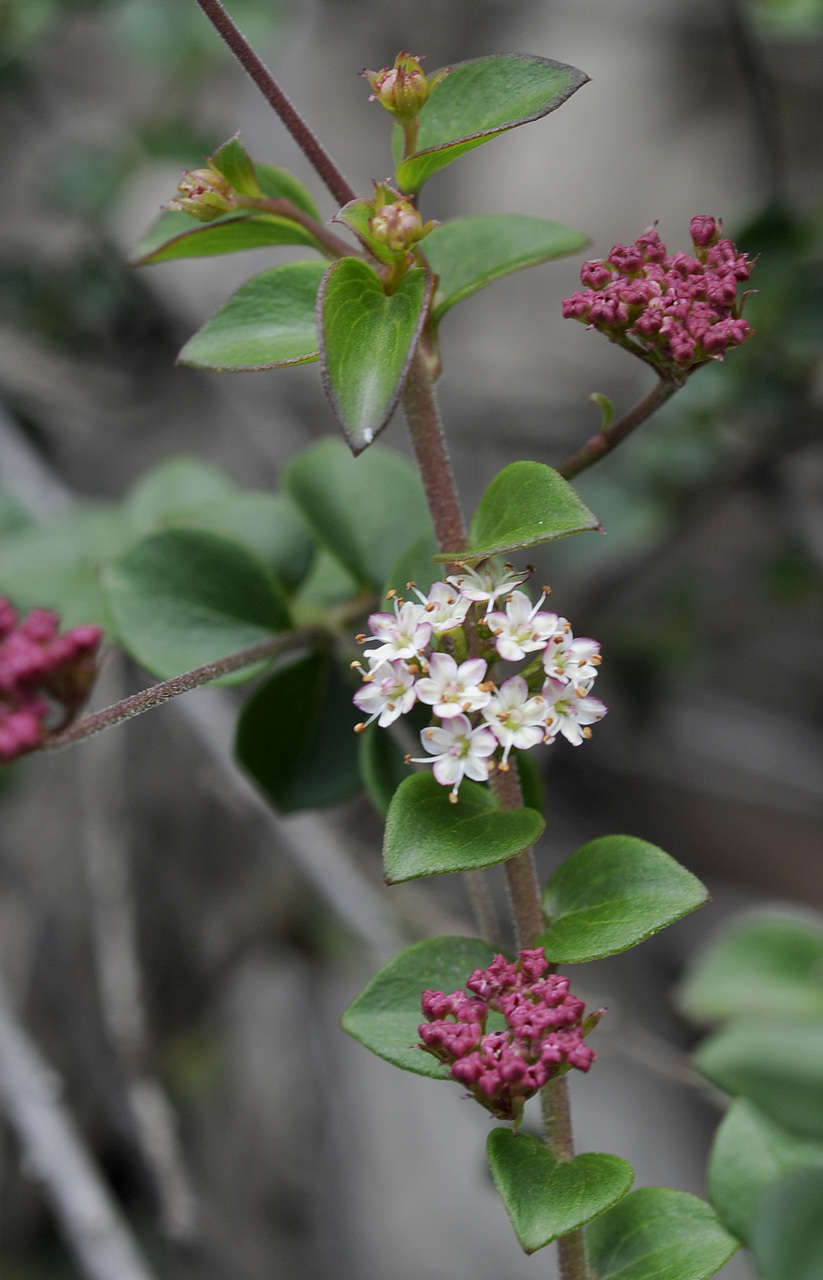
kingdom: Plantae
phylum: Tracheophyta
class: Magnoliopsida
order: Apiales
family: Apiaceae
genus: Platysace
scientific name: Platysace lanceolata
